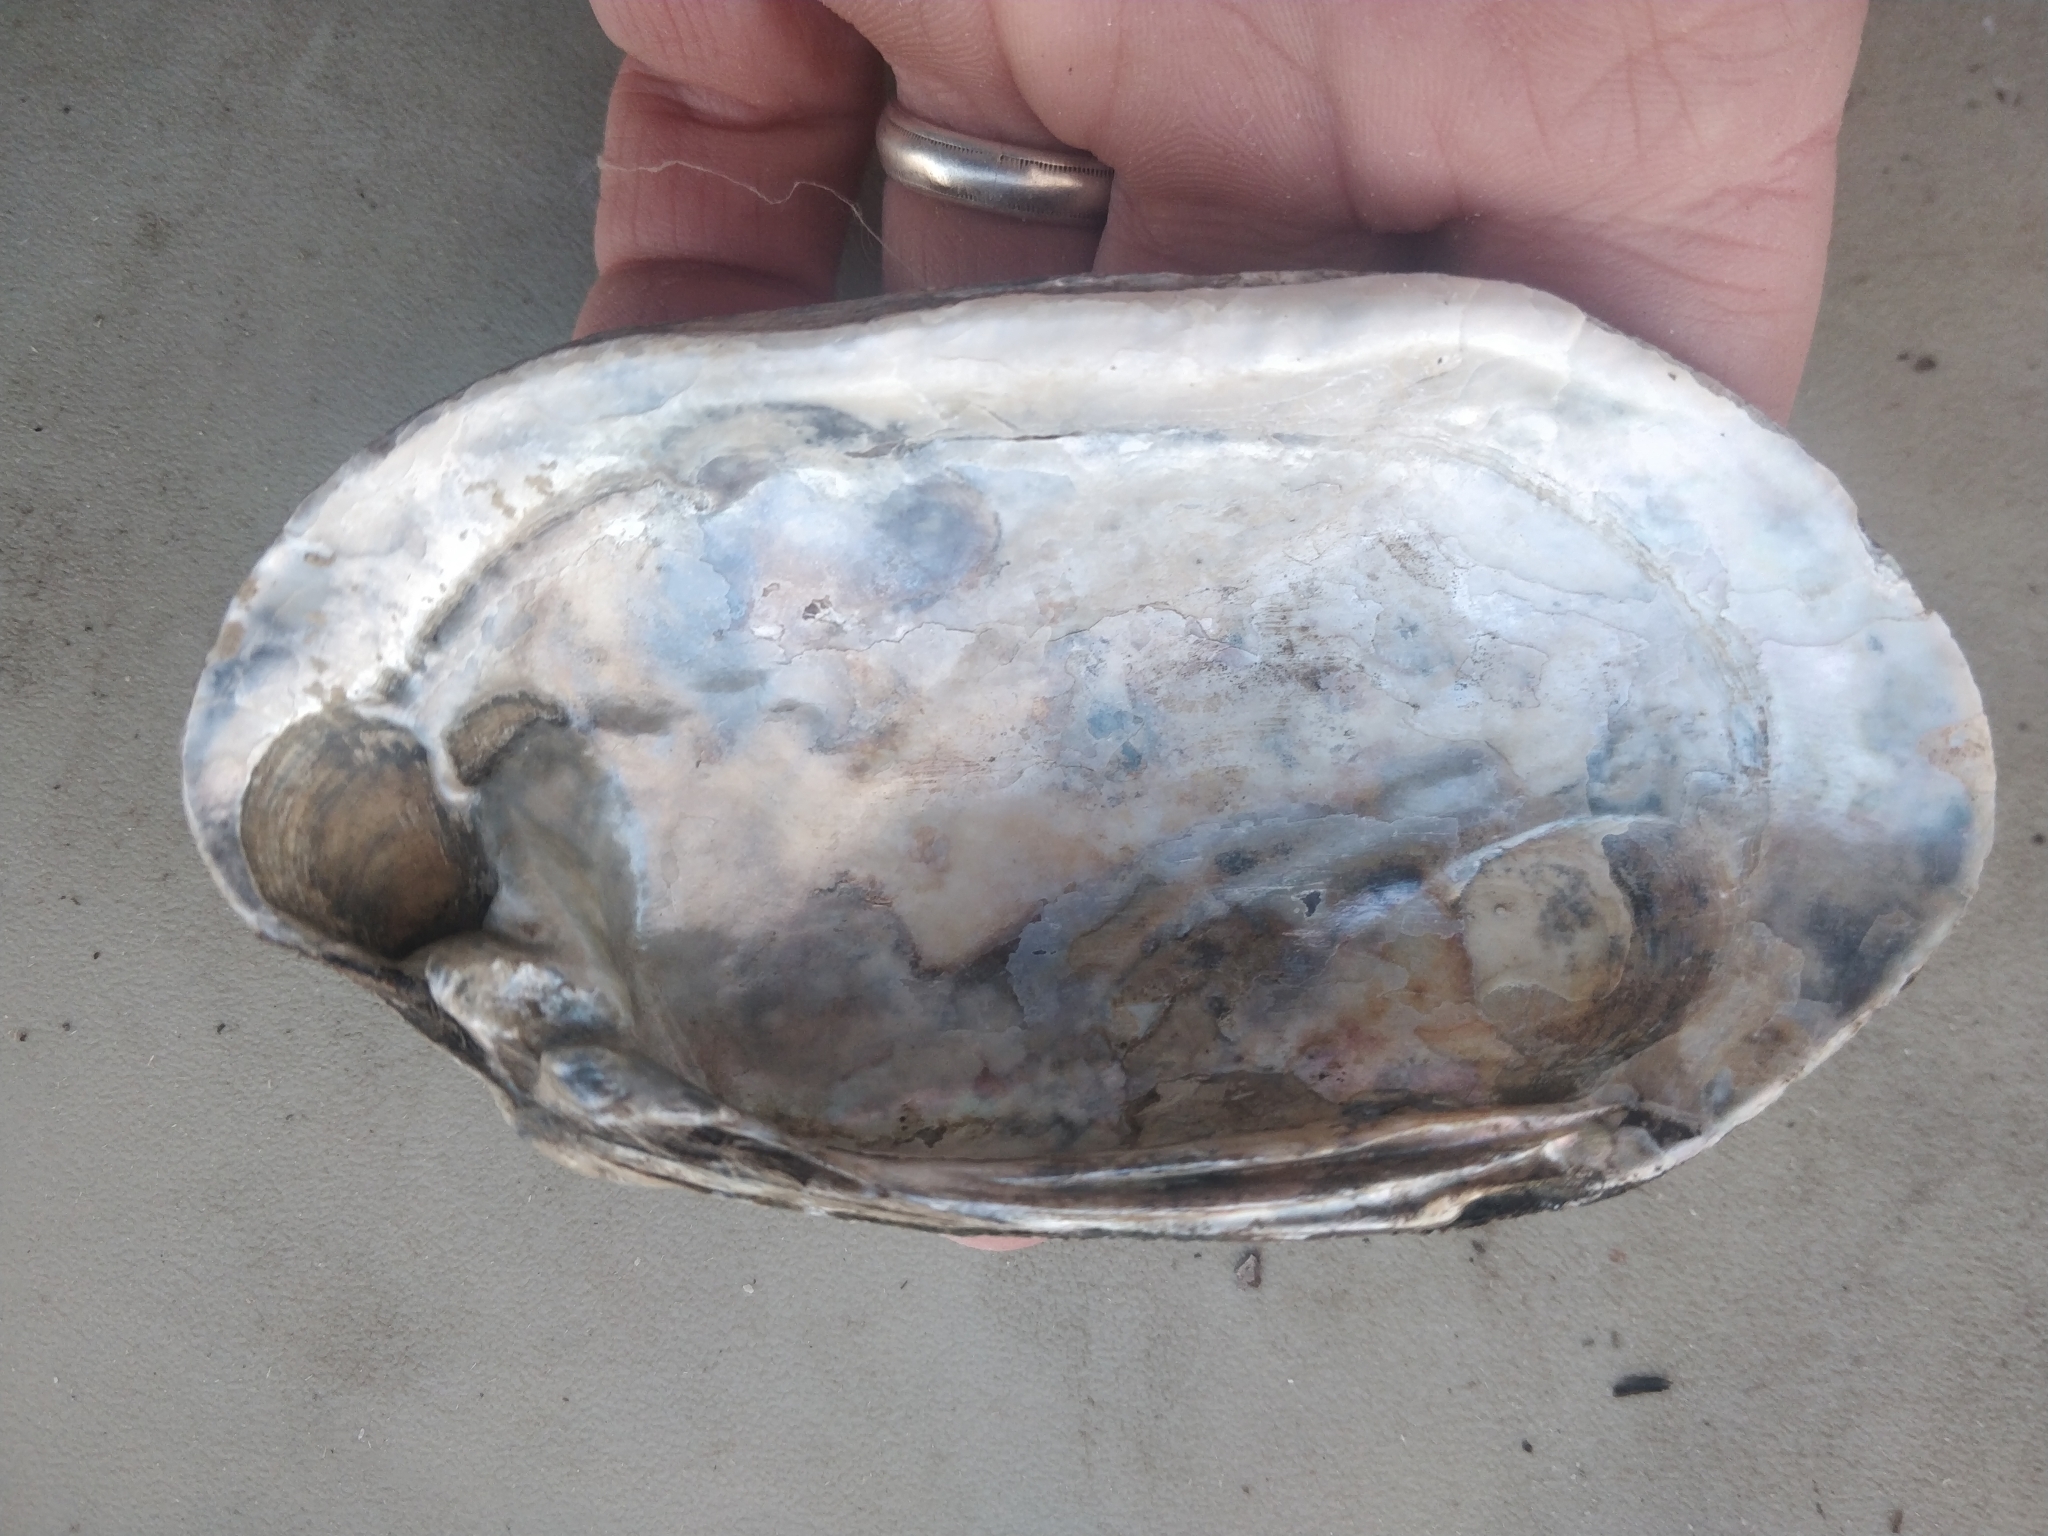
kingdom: Animalia
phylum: Mollusca
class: Bivalvia
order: Unionida
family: Unionidae
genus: Lampsilis
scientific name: Lampsilis siliquoidea
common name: Fatmucket
